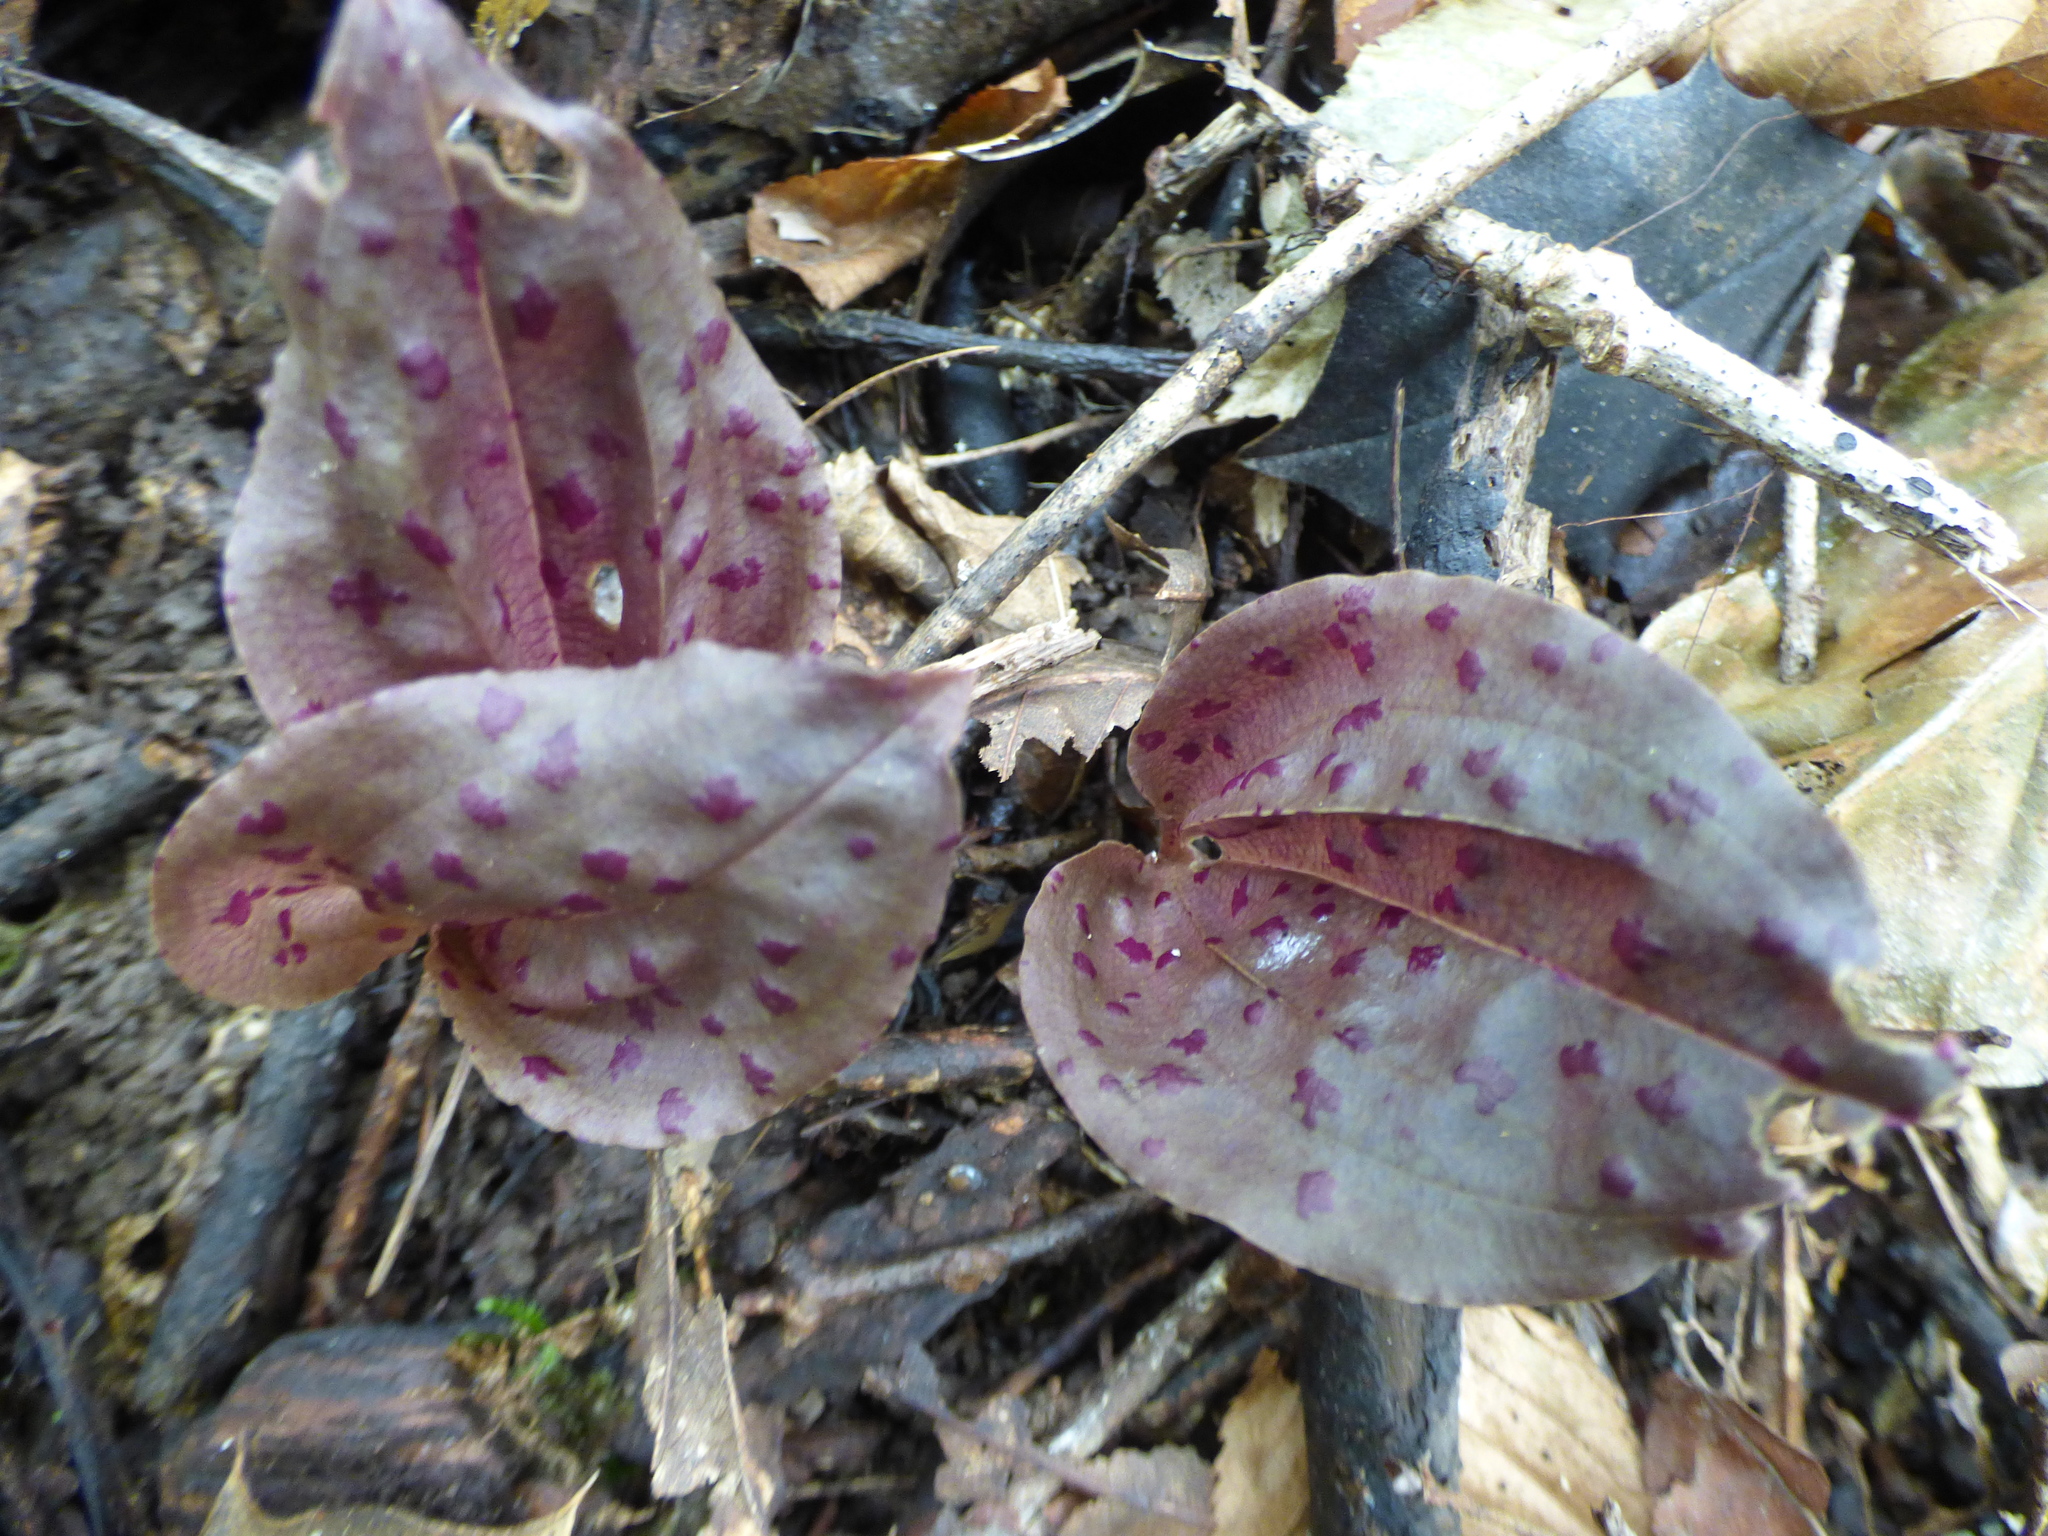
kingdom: Plantae
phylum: Tracheophyta
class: Liliopsida
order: Asparagales
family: Orchidaceae
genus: Tipularia
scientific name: Tipularia discolor
